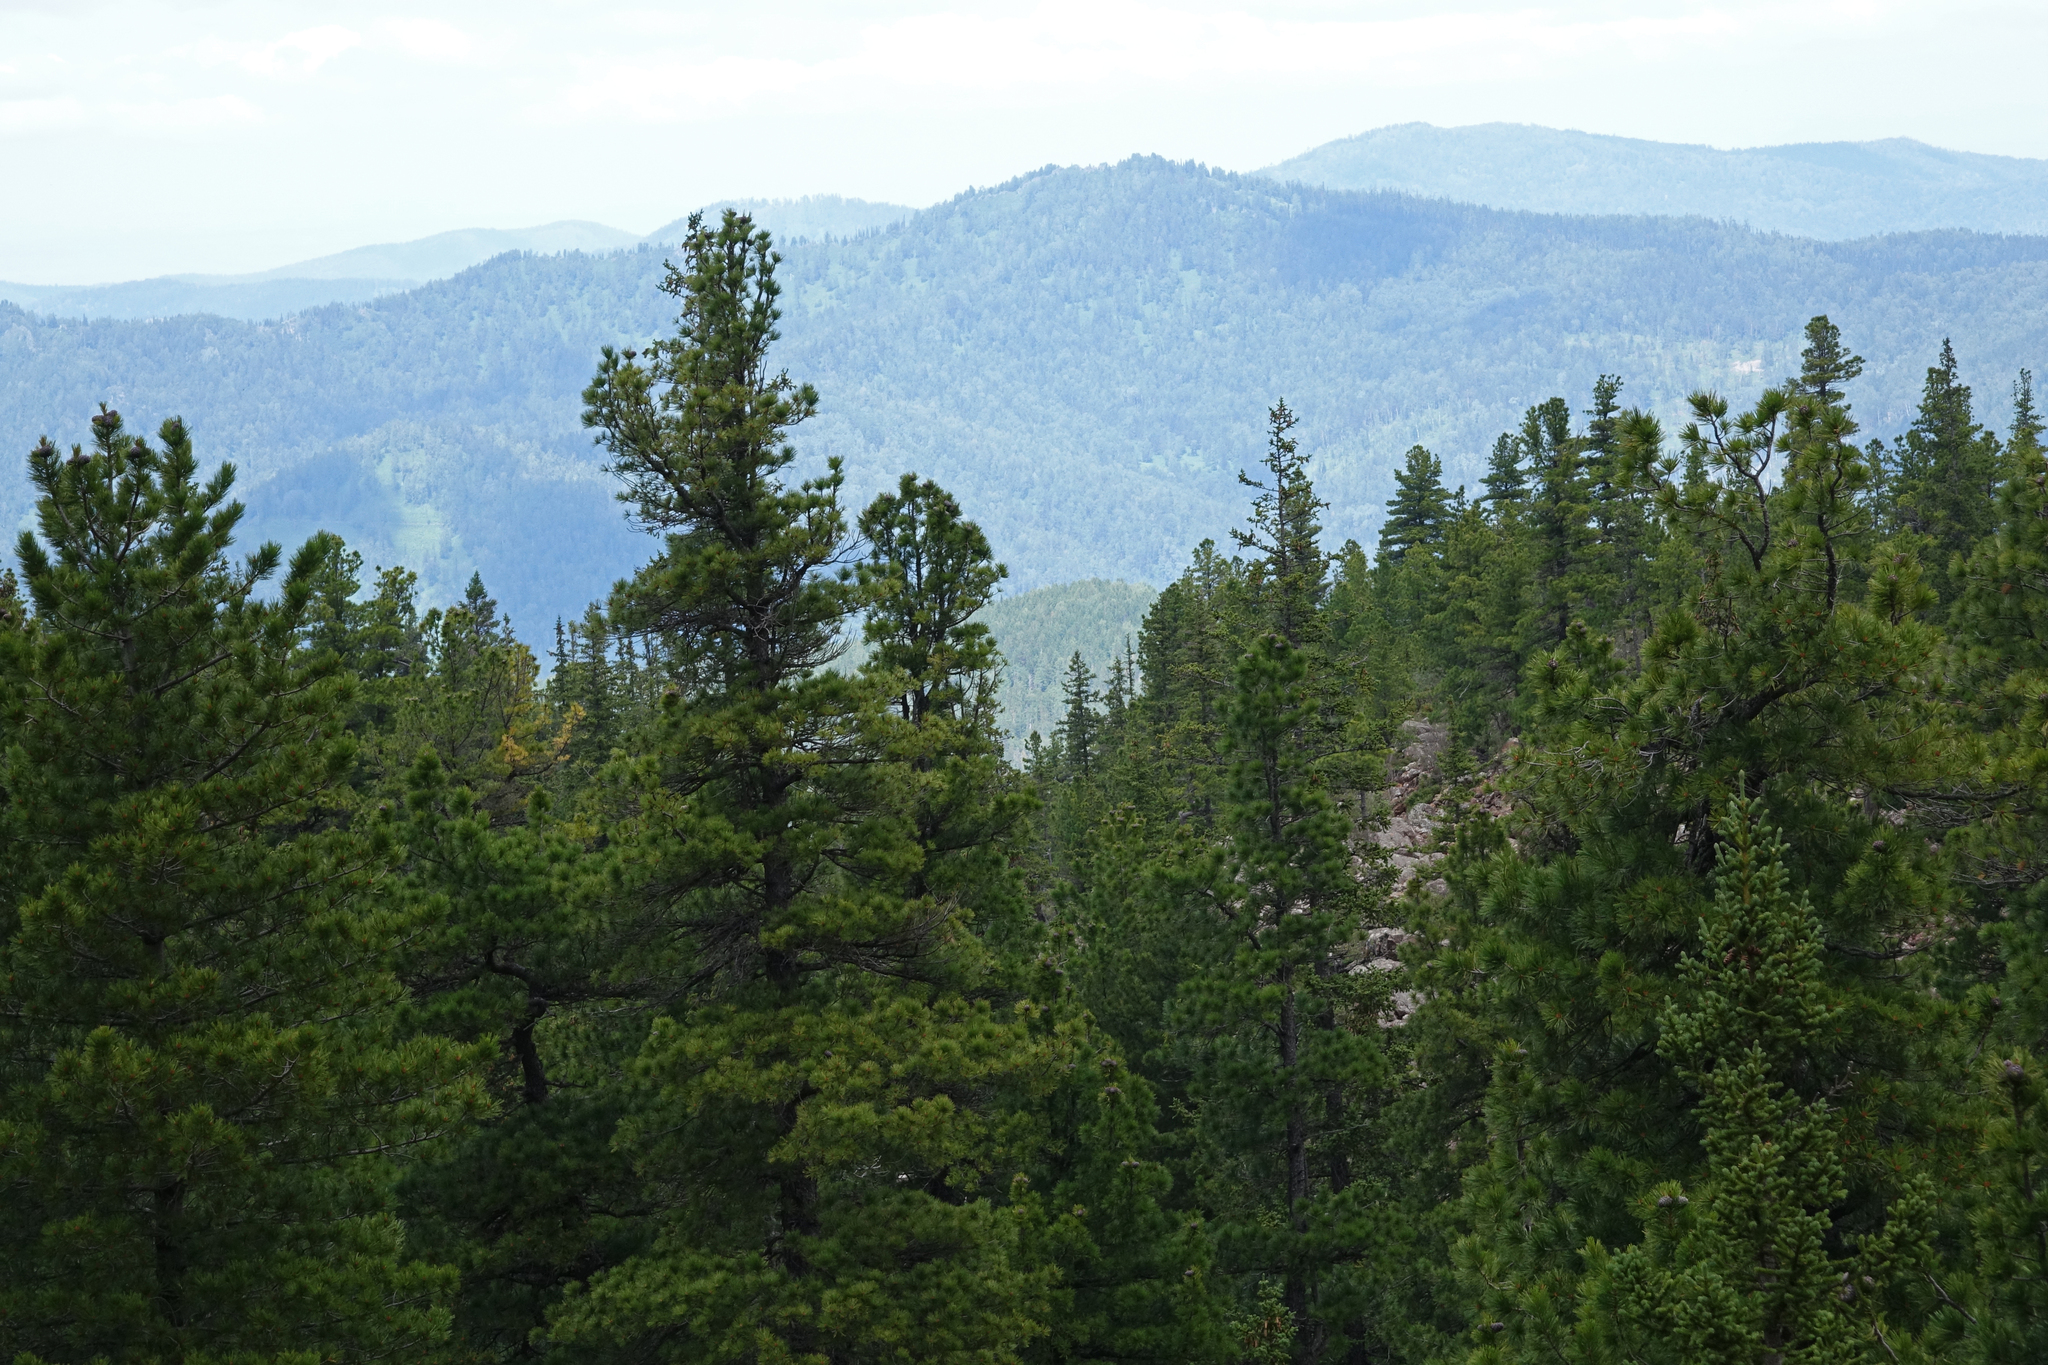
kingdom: Plantae
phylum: Tracheophyta
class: Pinopsida
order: Pinales
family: Pinaceae
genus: Pinus
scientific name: Pinus sibirica
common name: Siberian pine
